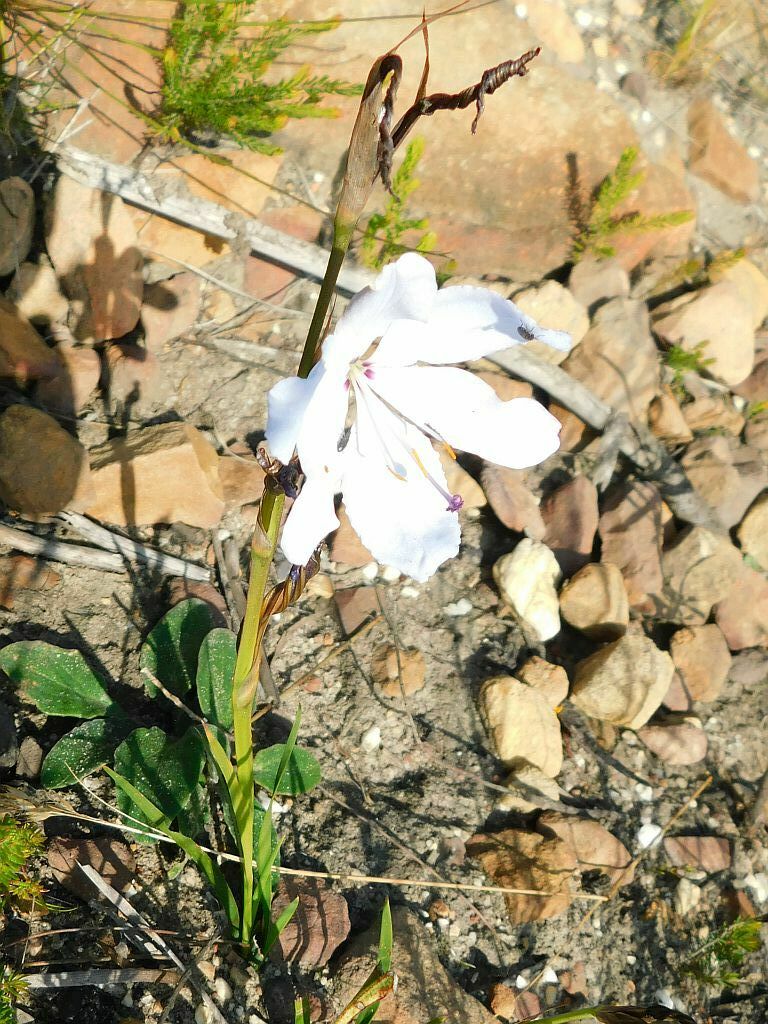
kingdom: Plantae
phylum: Tracheophyta
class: Liliopsida
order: Asparagales
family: Iridaceae
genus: Aristea
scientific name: Aristea spiralis
